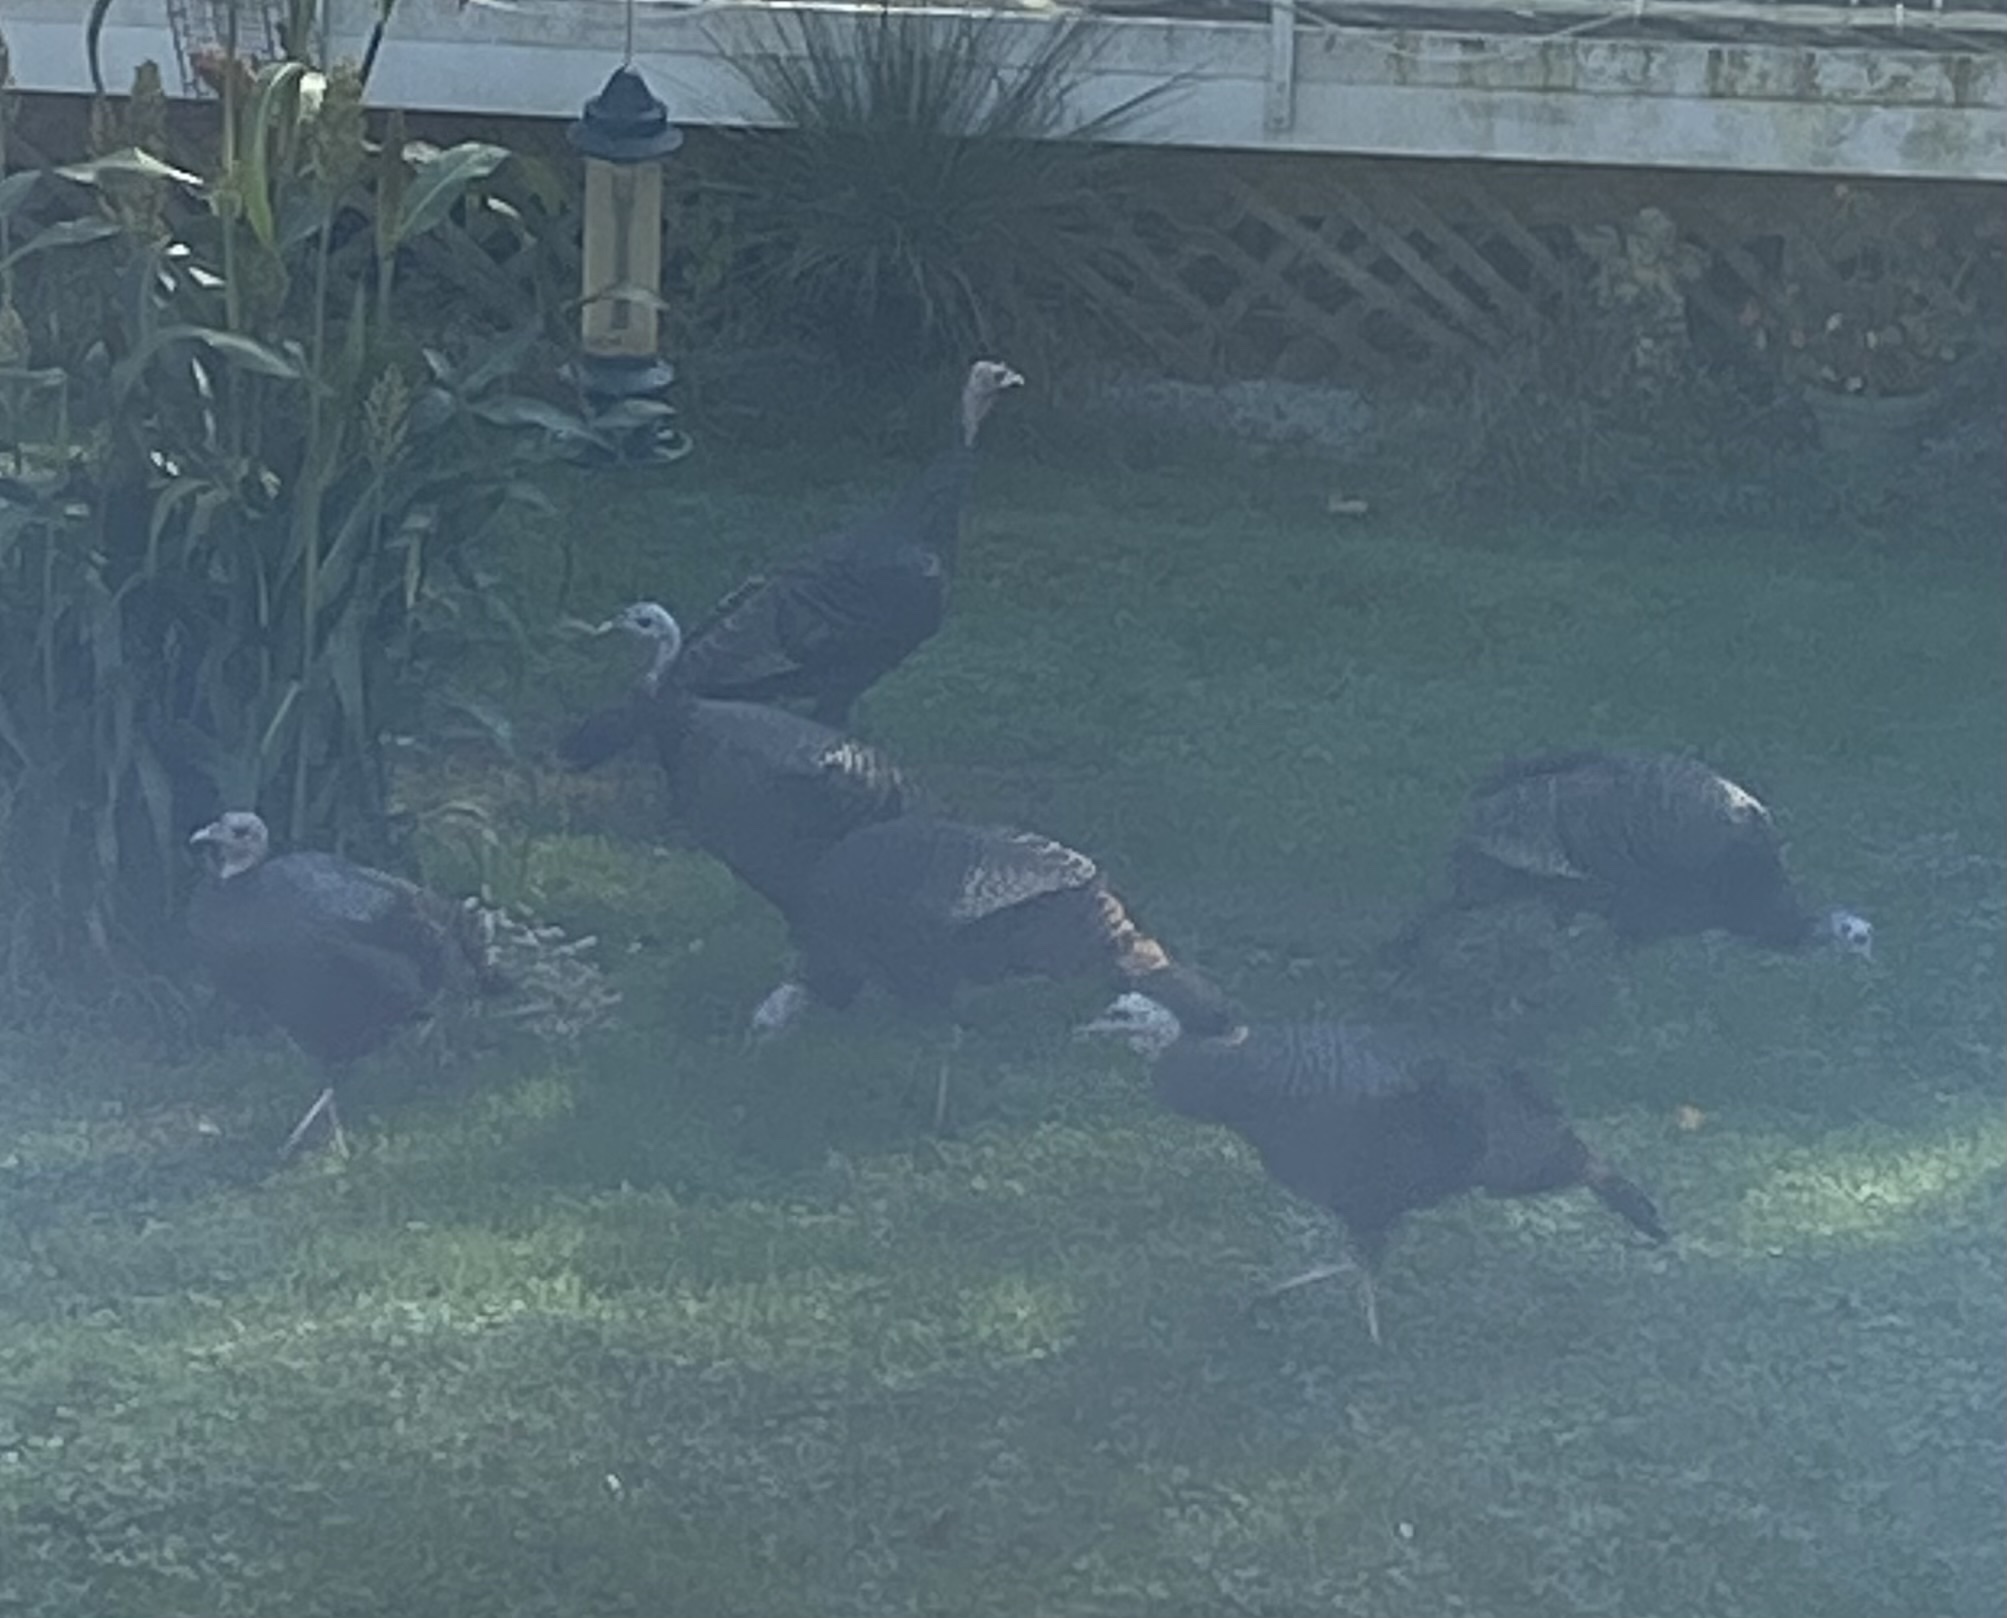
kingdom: Animalia
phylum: Chordata
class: Aves
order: Galliformes
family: Phasianidae
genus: Meleagris
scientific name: Meleagris gallopavo
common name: Wild turkey
